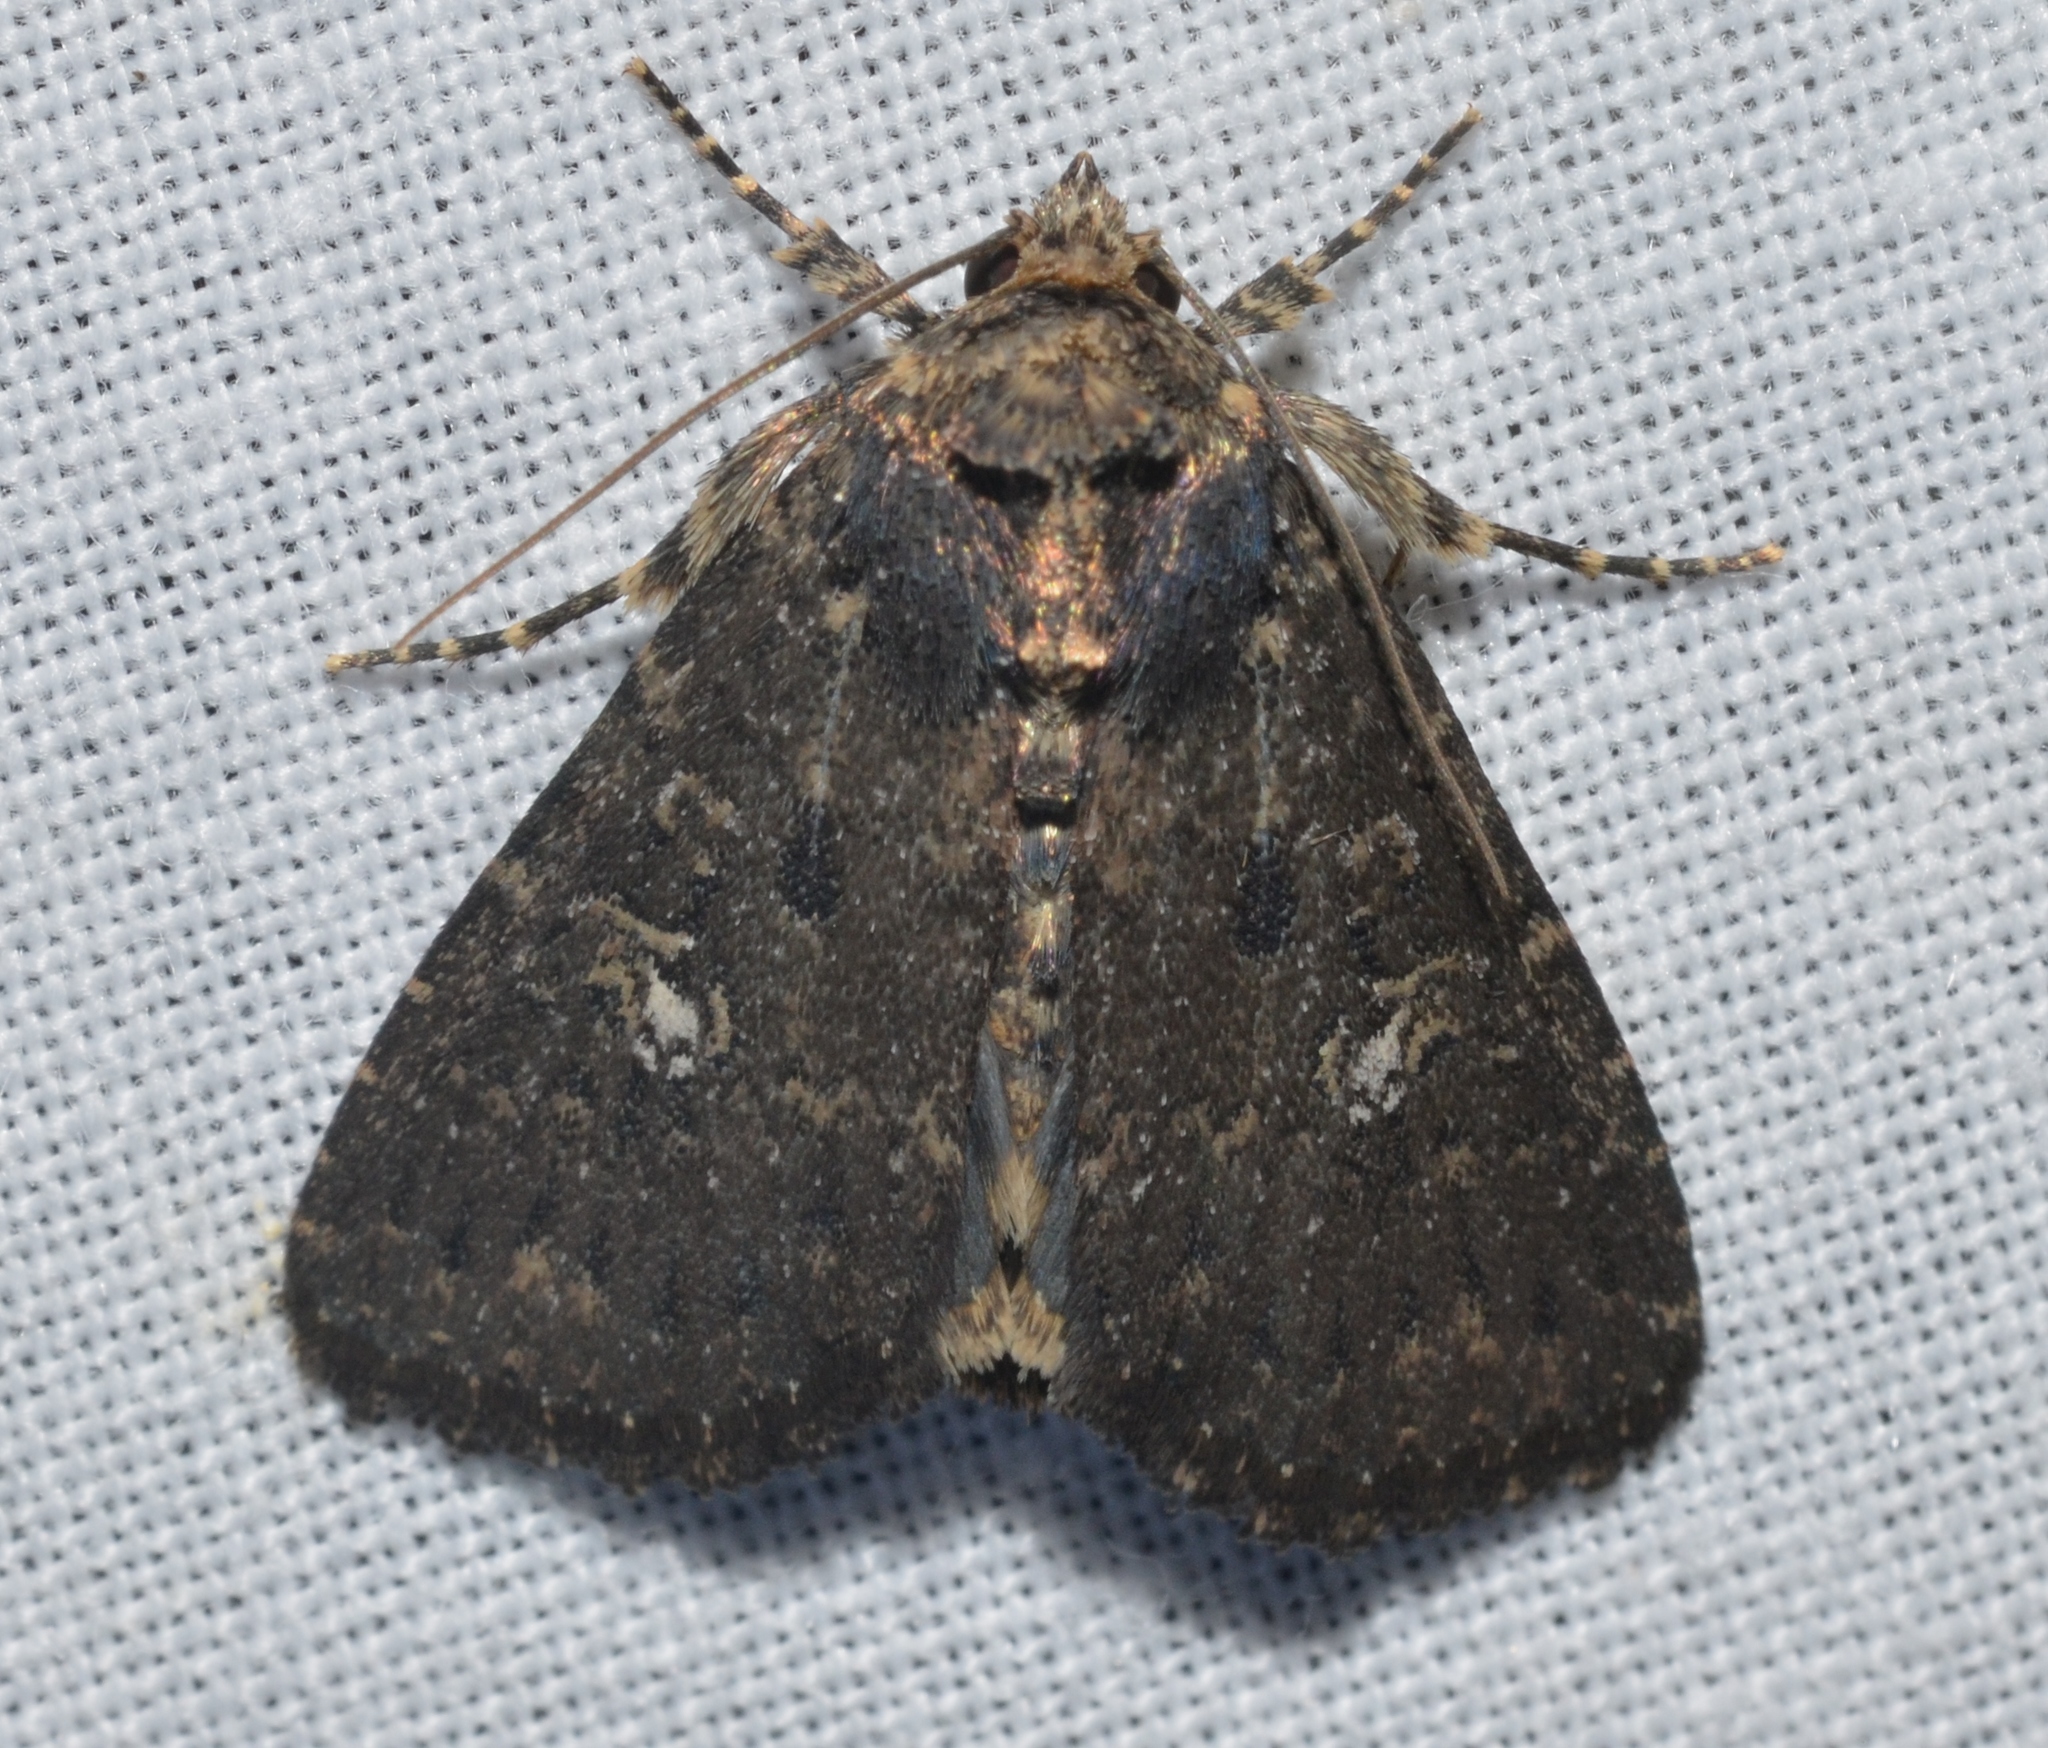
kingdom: Animalia
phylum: Arthropoda
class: Insecta
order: Lepidoptera
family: Noctuidae
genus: Condica
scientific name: Condica vecors
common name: Dusky groundling
